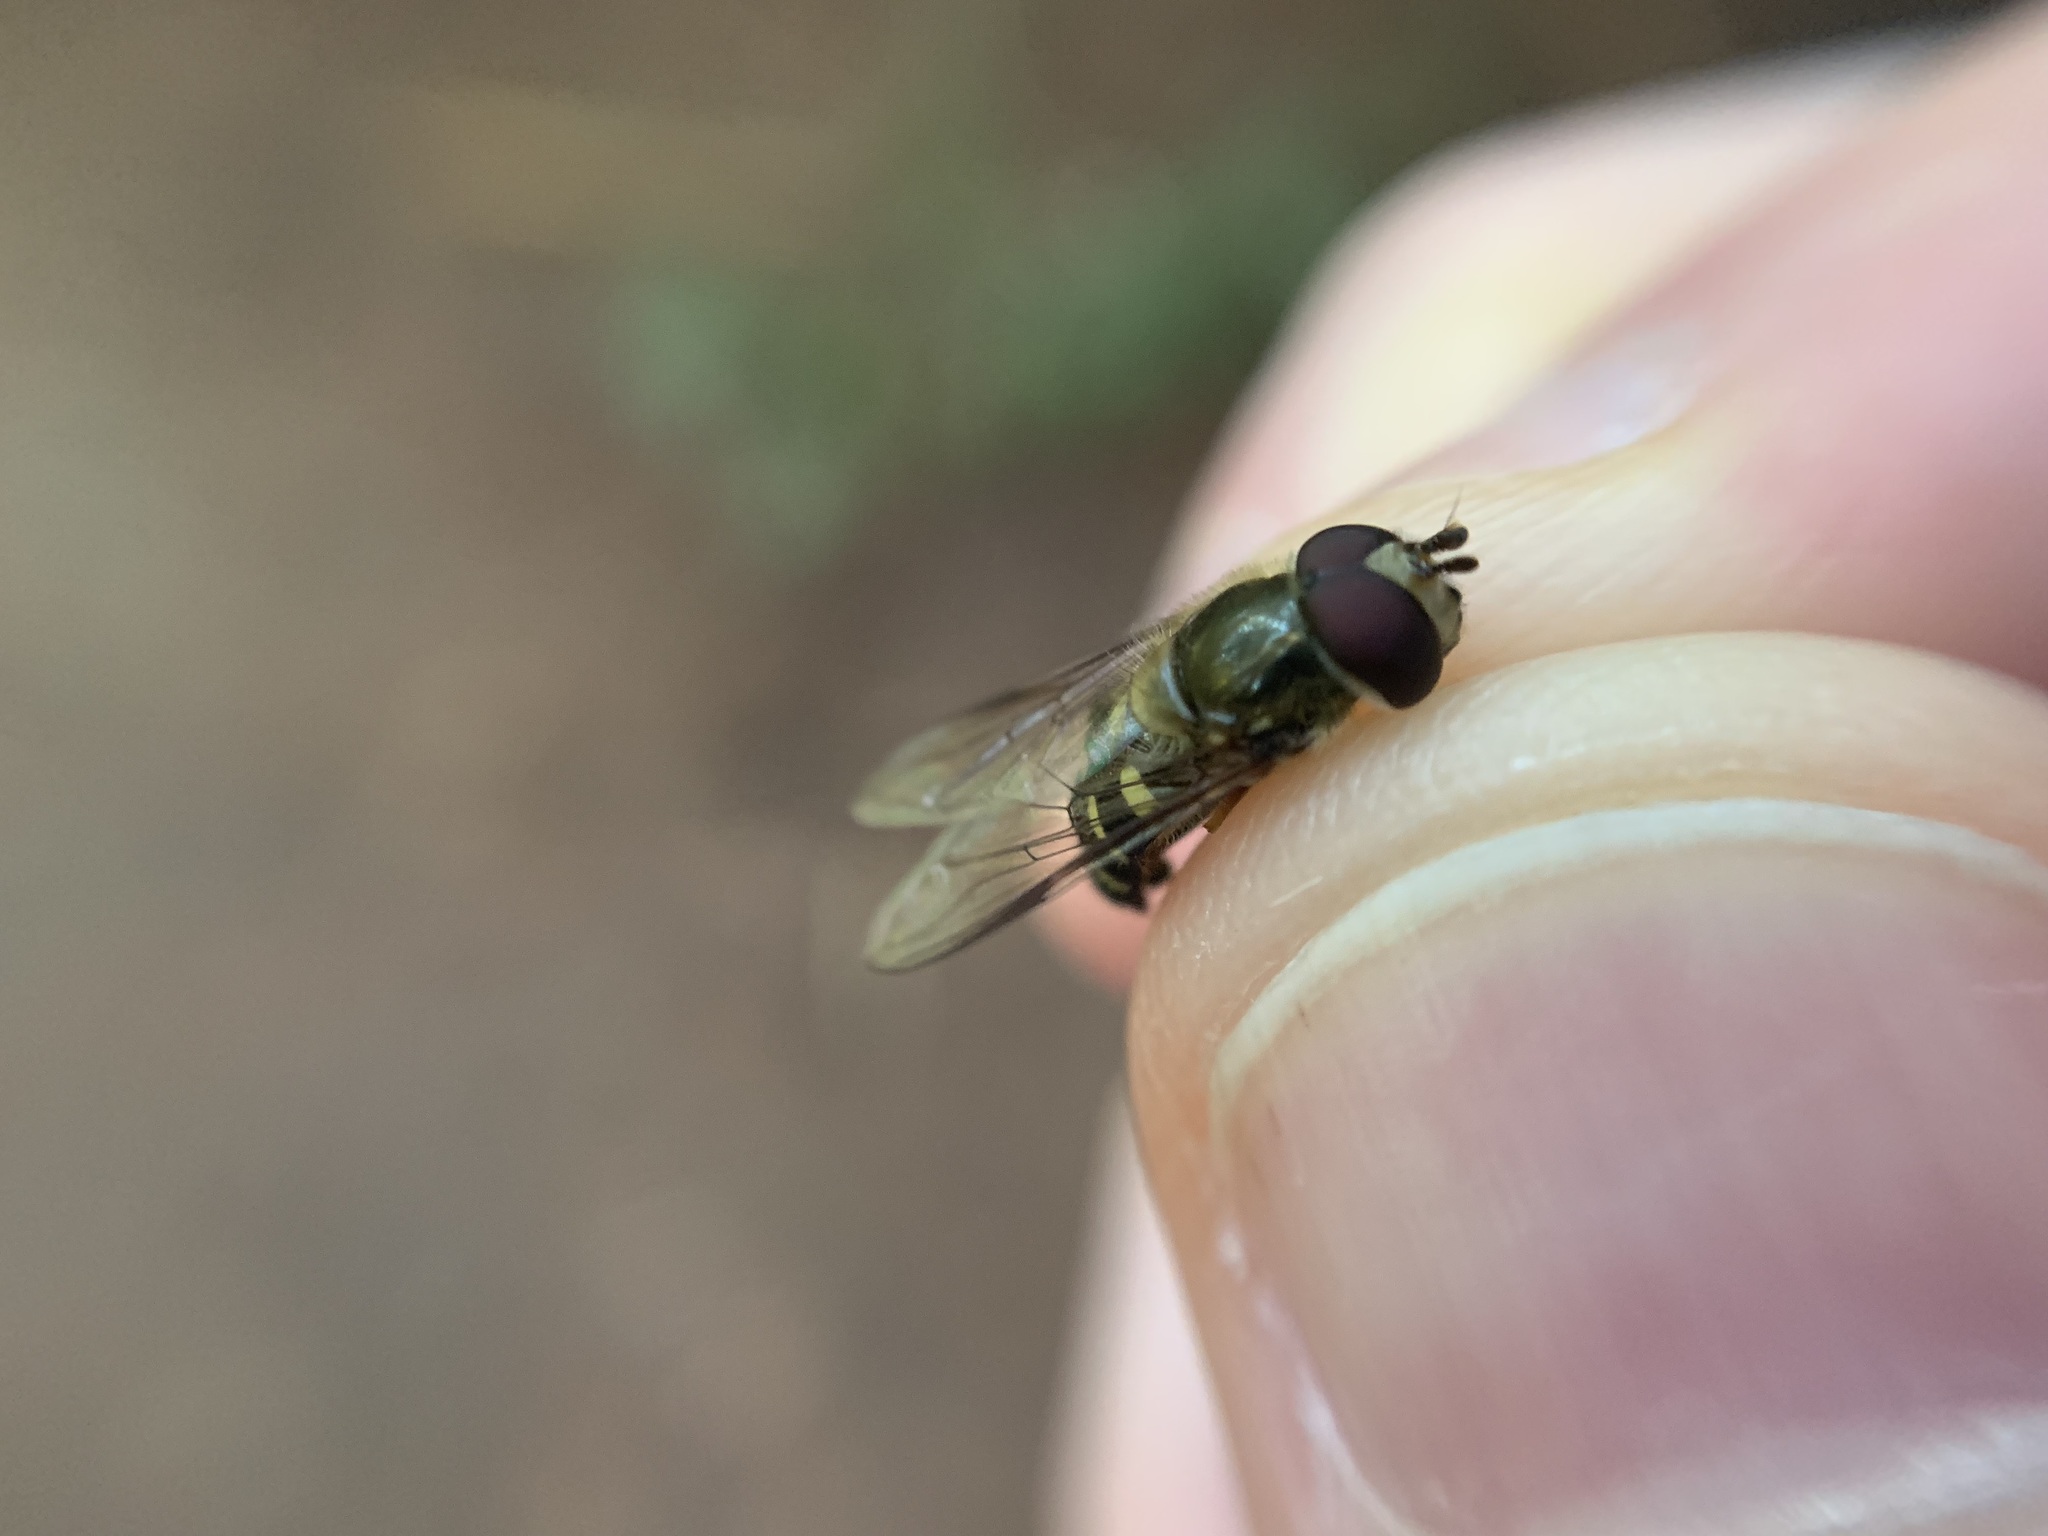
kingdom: Animalia
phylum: Arthropoda
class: Insecta
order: Diptera
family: Syrphidae
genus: Lapposyrphus
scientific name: Lapposyrphus lapponicus
